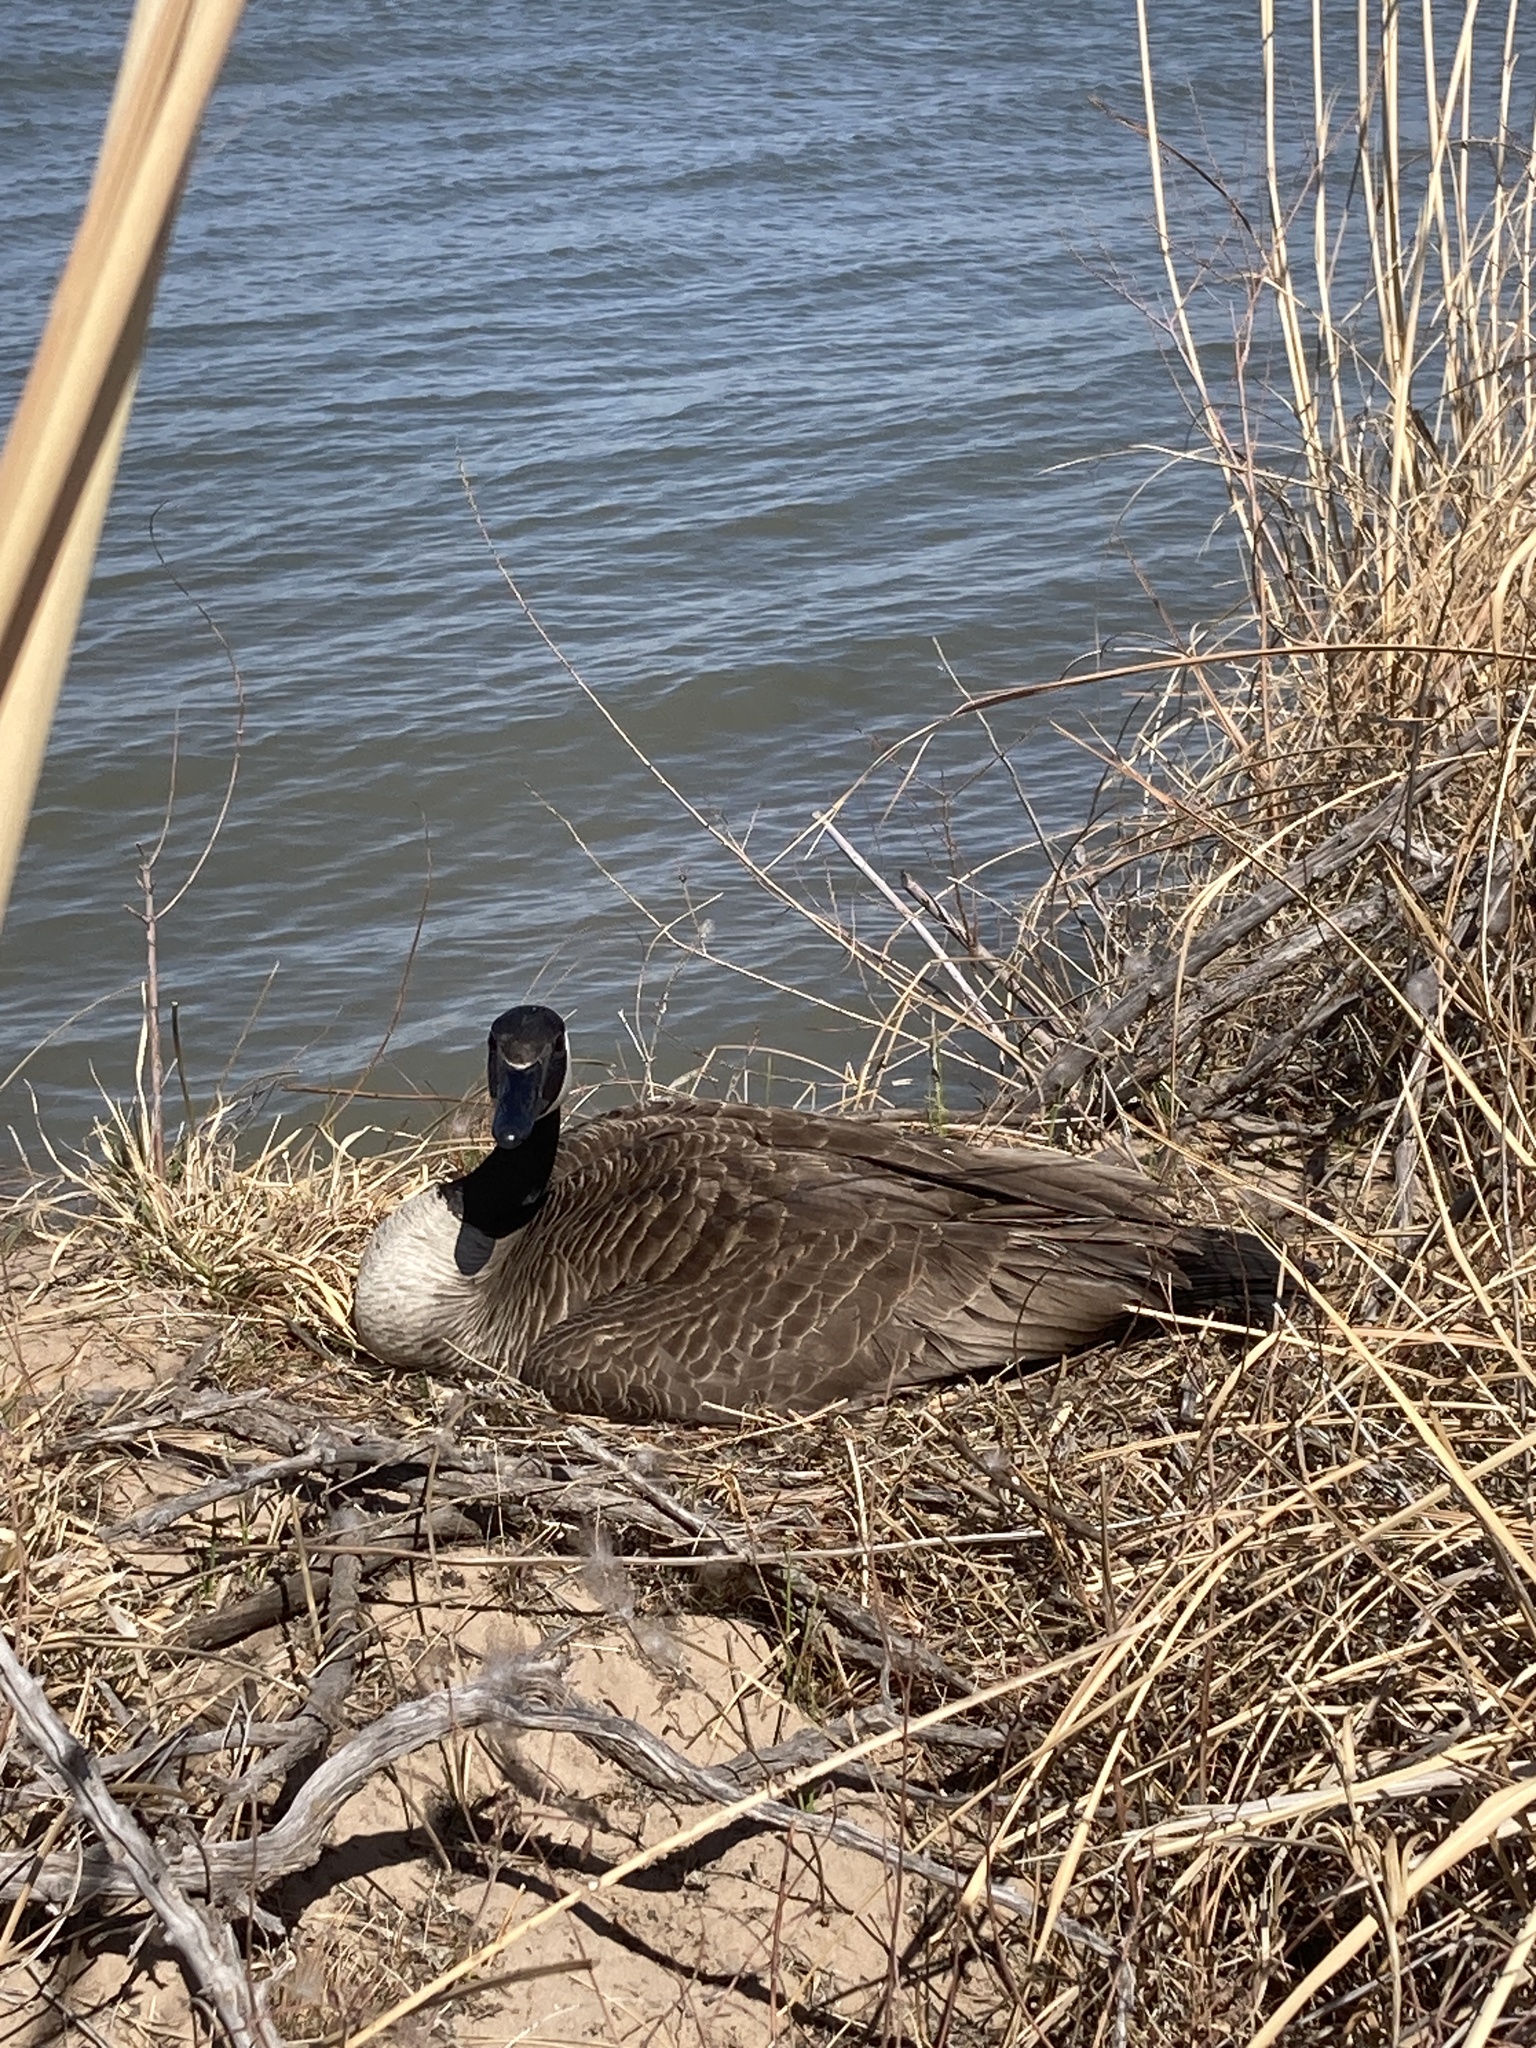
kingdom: Animalia
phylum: Chordata
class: Aves
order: Anseriformes
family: Anatidae
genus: Branta
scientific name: Branta canadensis
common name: Canada goose
